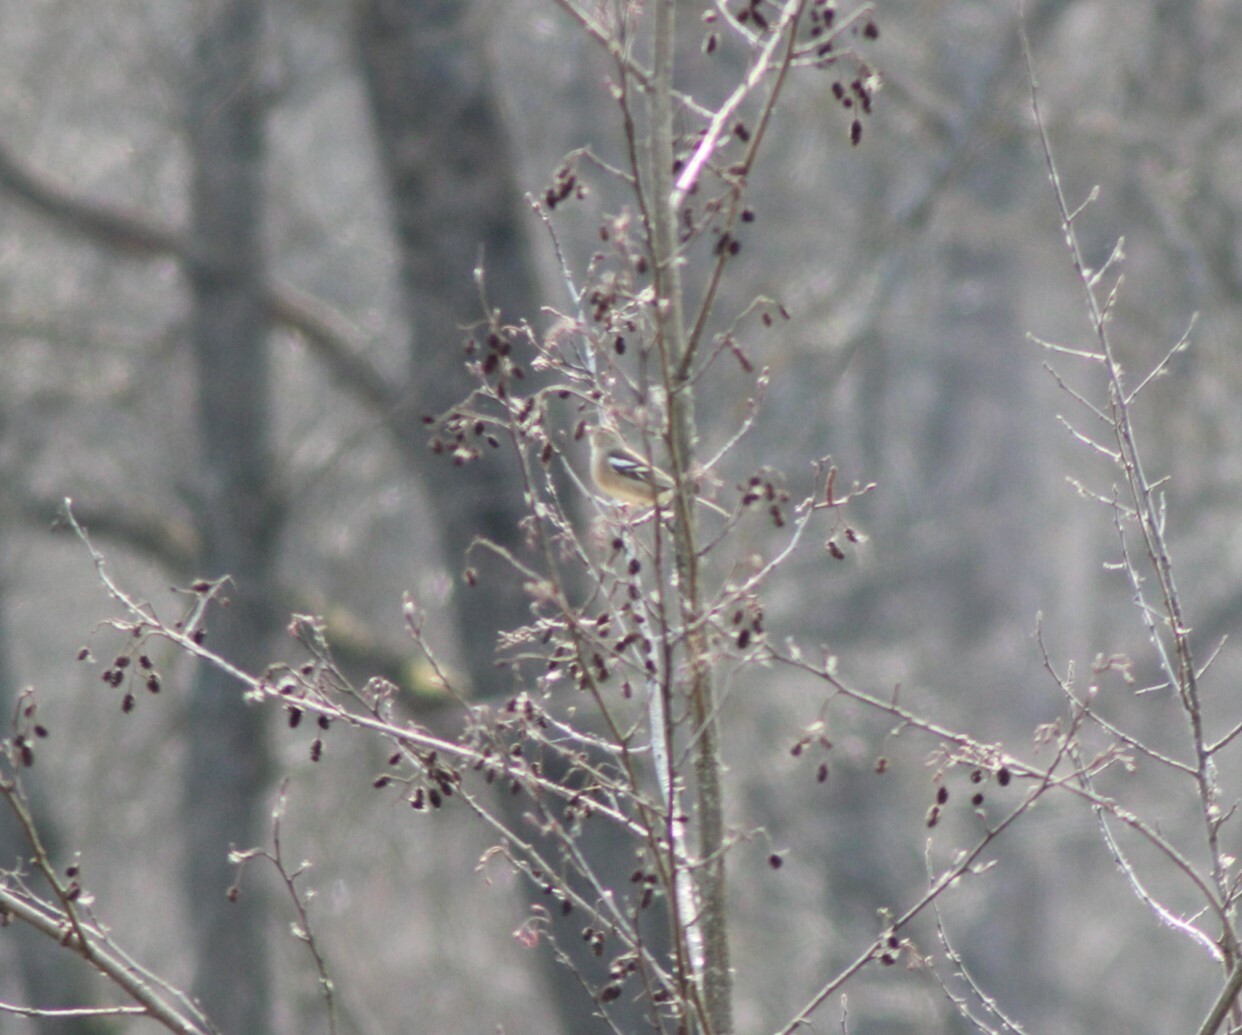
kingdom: Animalia
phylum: Chordata
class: Aves
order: Passeriformes
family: Fringillidae
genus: Fringilla
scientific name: Fringilla coelebs
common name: Common chaffinch
